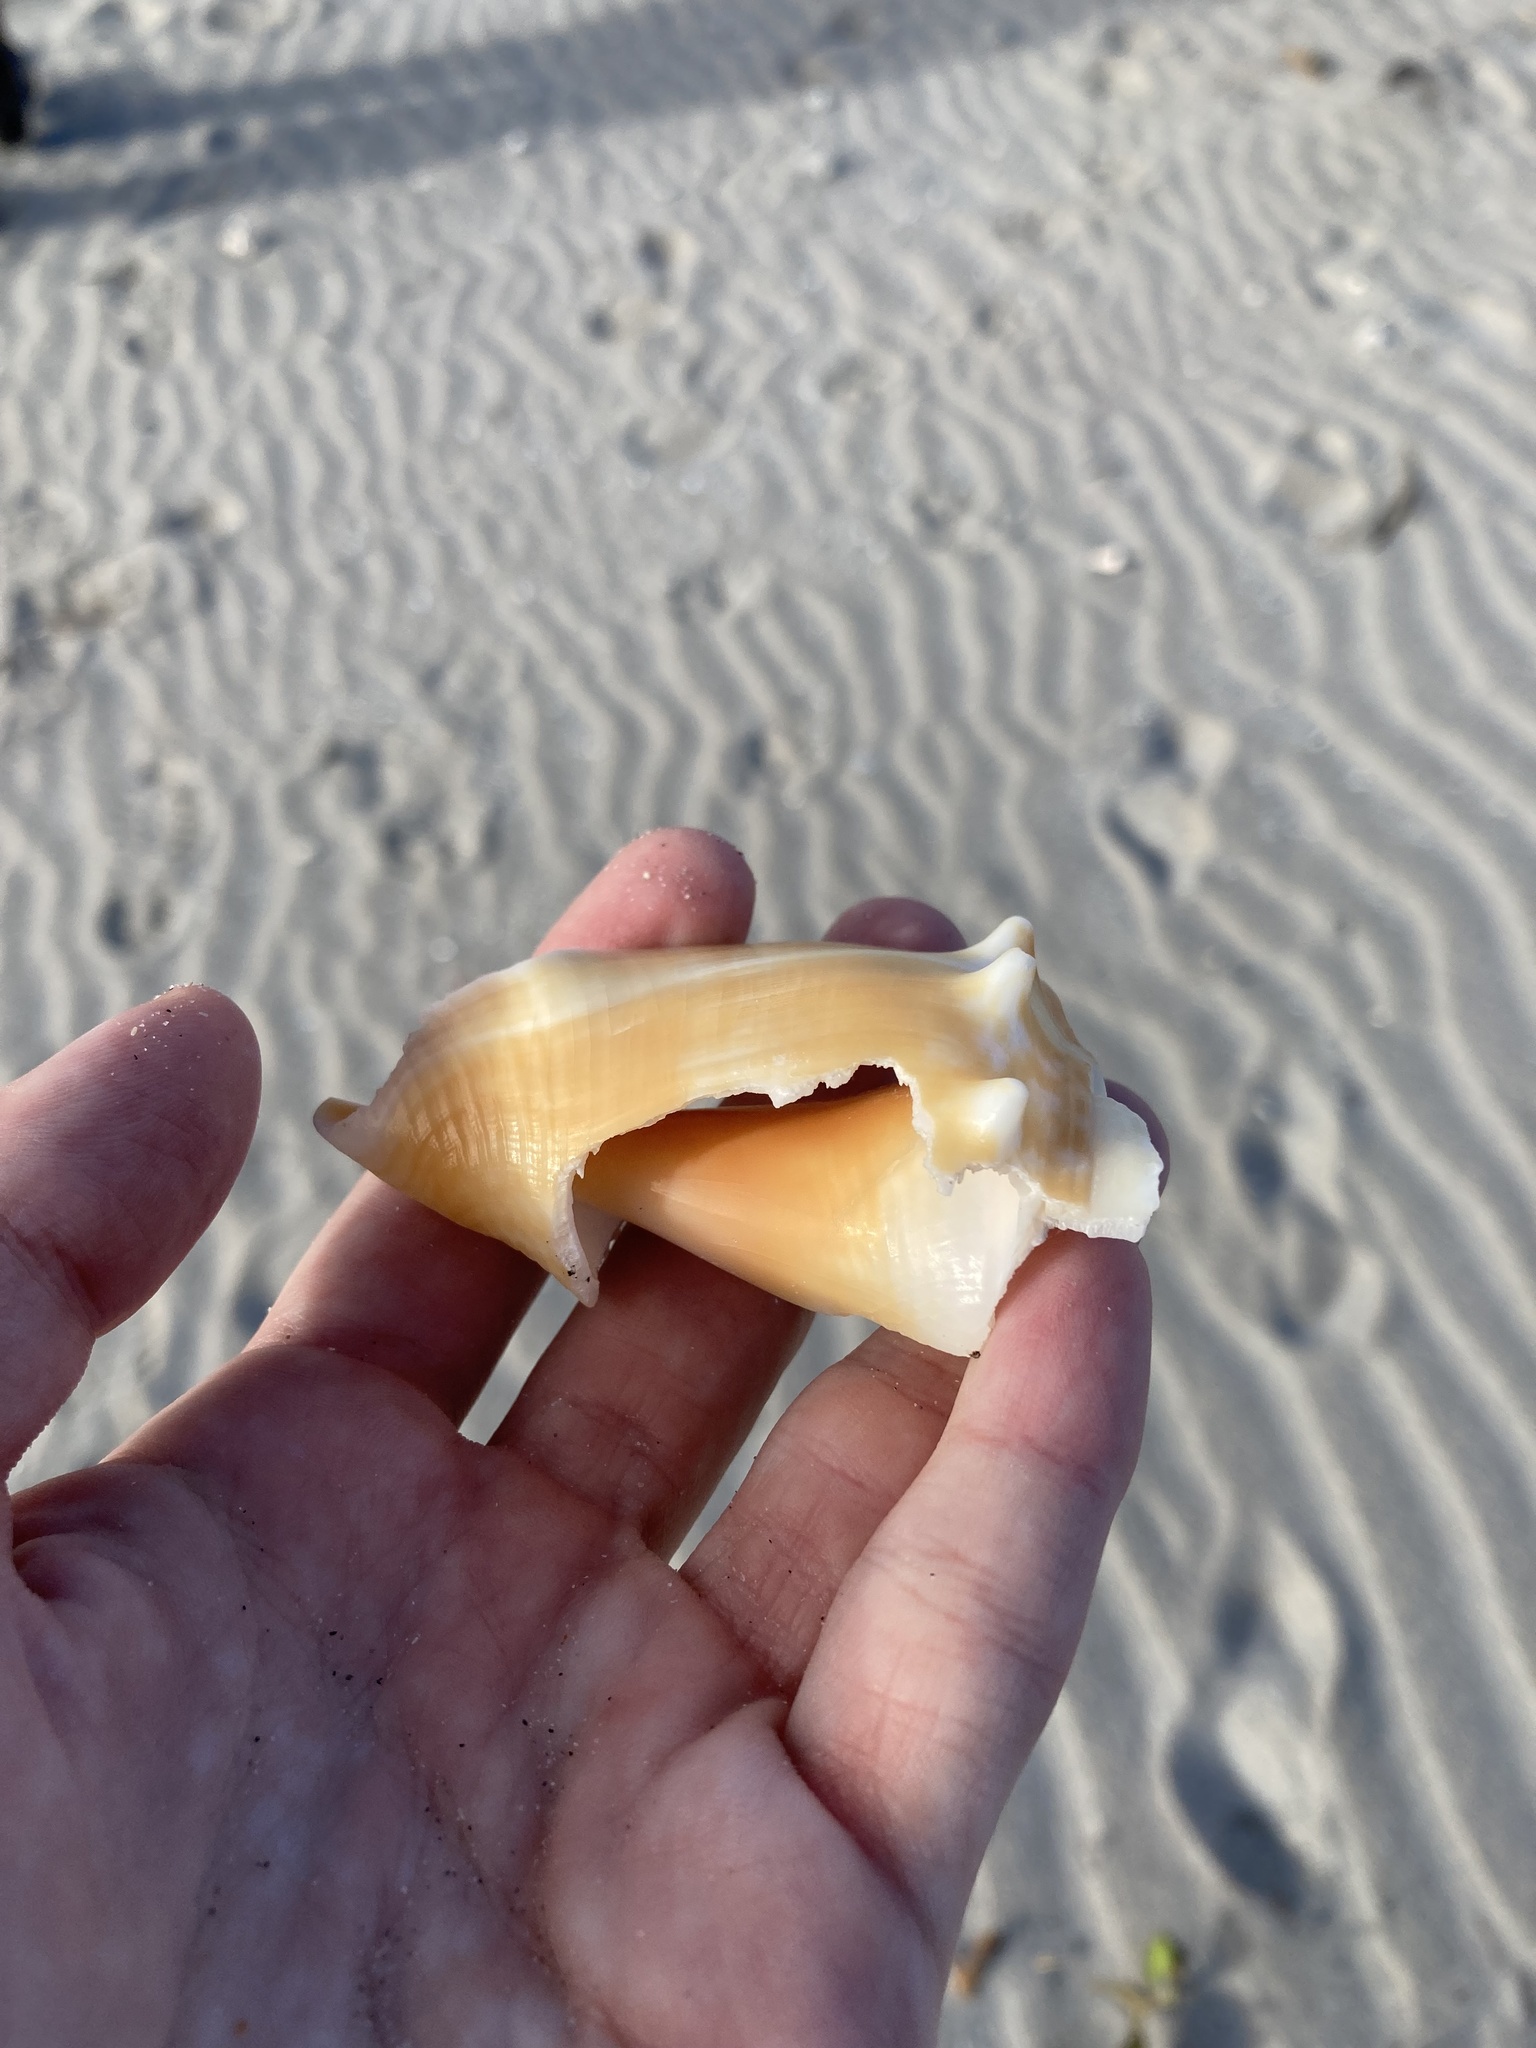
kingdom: Animalia
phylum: Mollusca
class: Gastropoda
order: Littorinimorpha
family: Strombidae
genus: Strombus
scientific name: Strombus alatus
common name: Florida fighting conch
